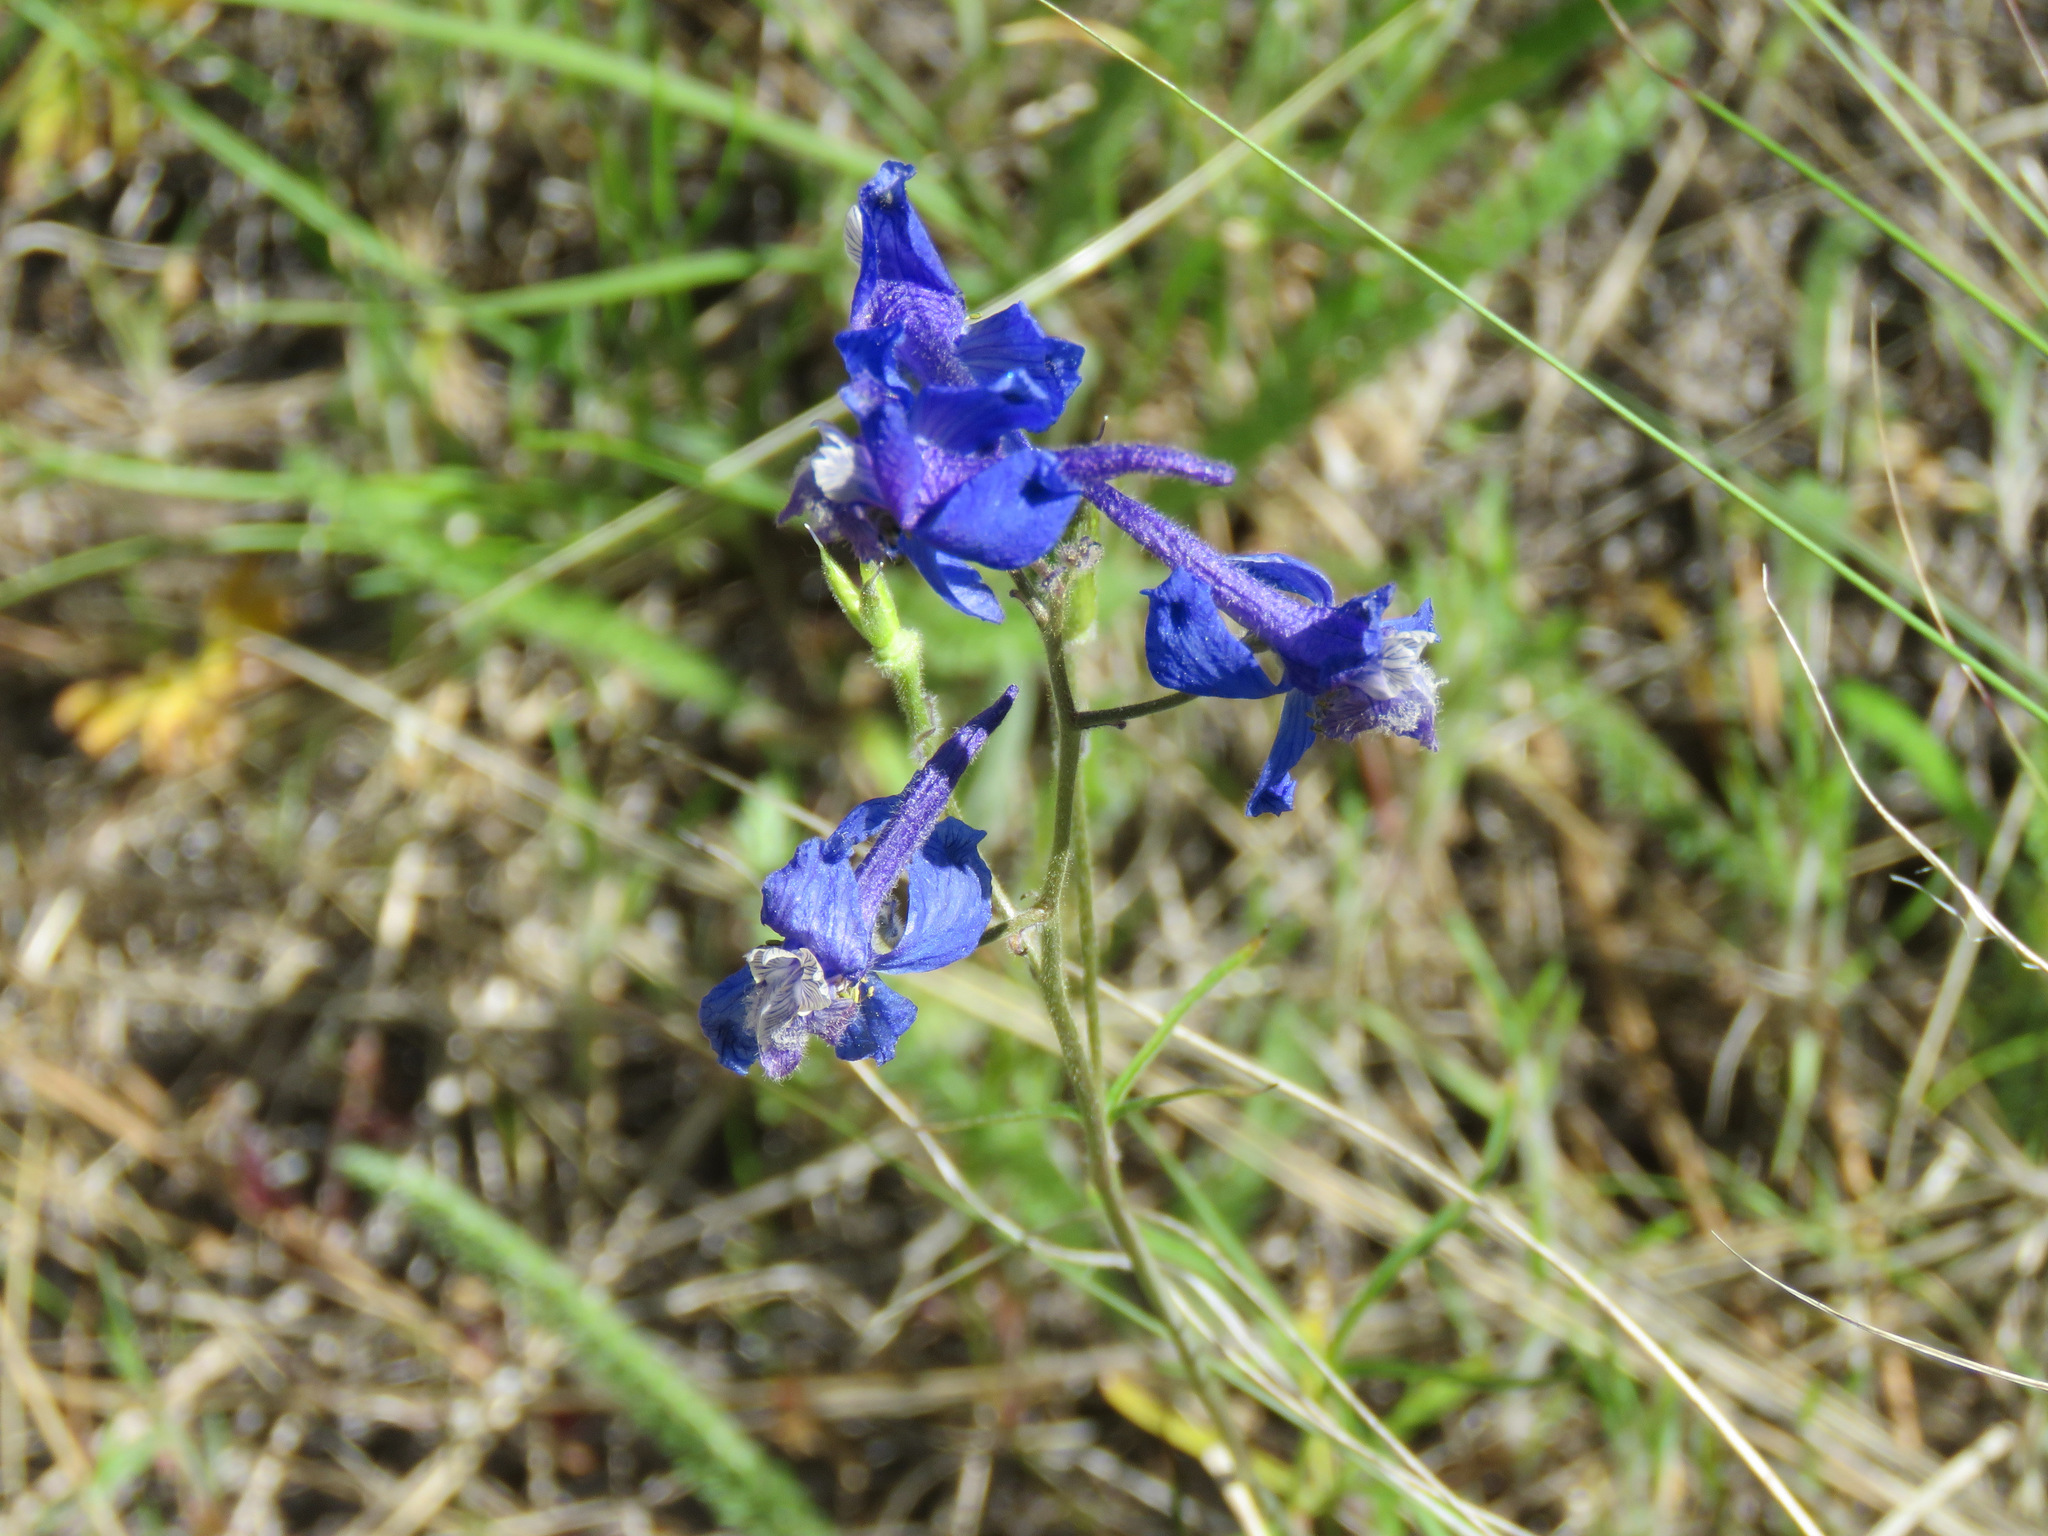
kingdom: Plantae
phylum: Tracheophyta
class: Magnoliopsida
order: Ranunculales
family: Ranunculaceae
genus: Delphinium
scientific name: Delphinium nuttallianum
